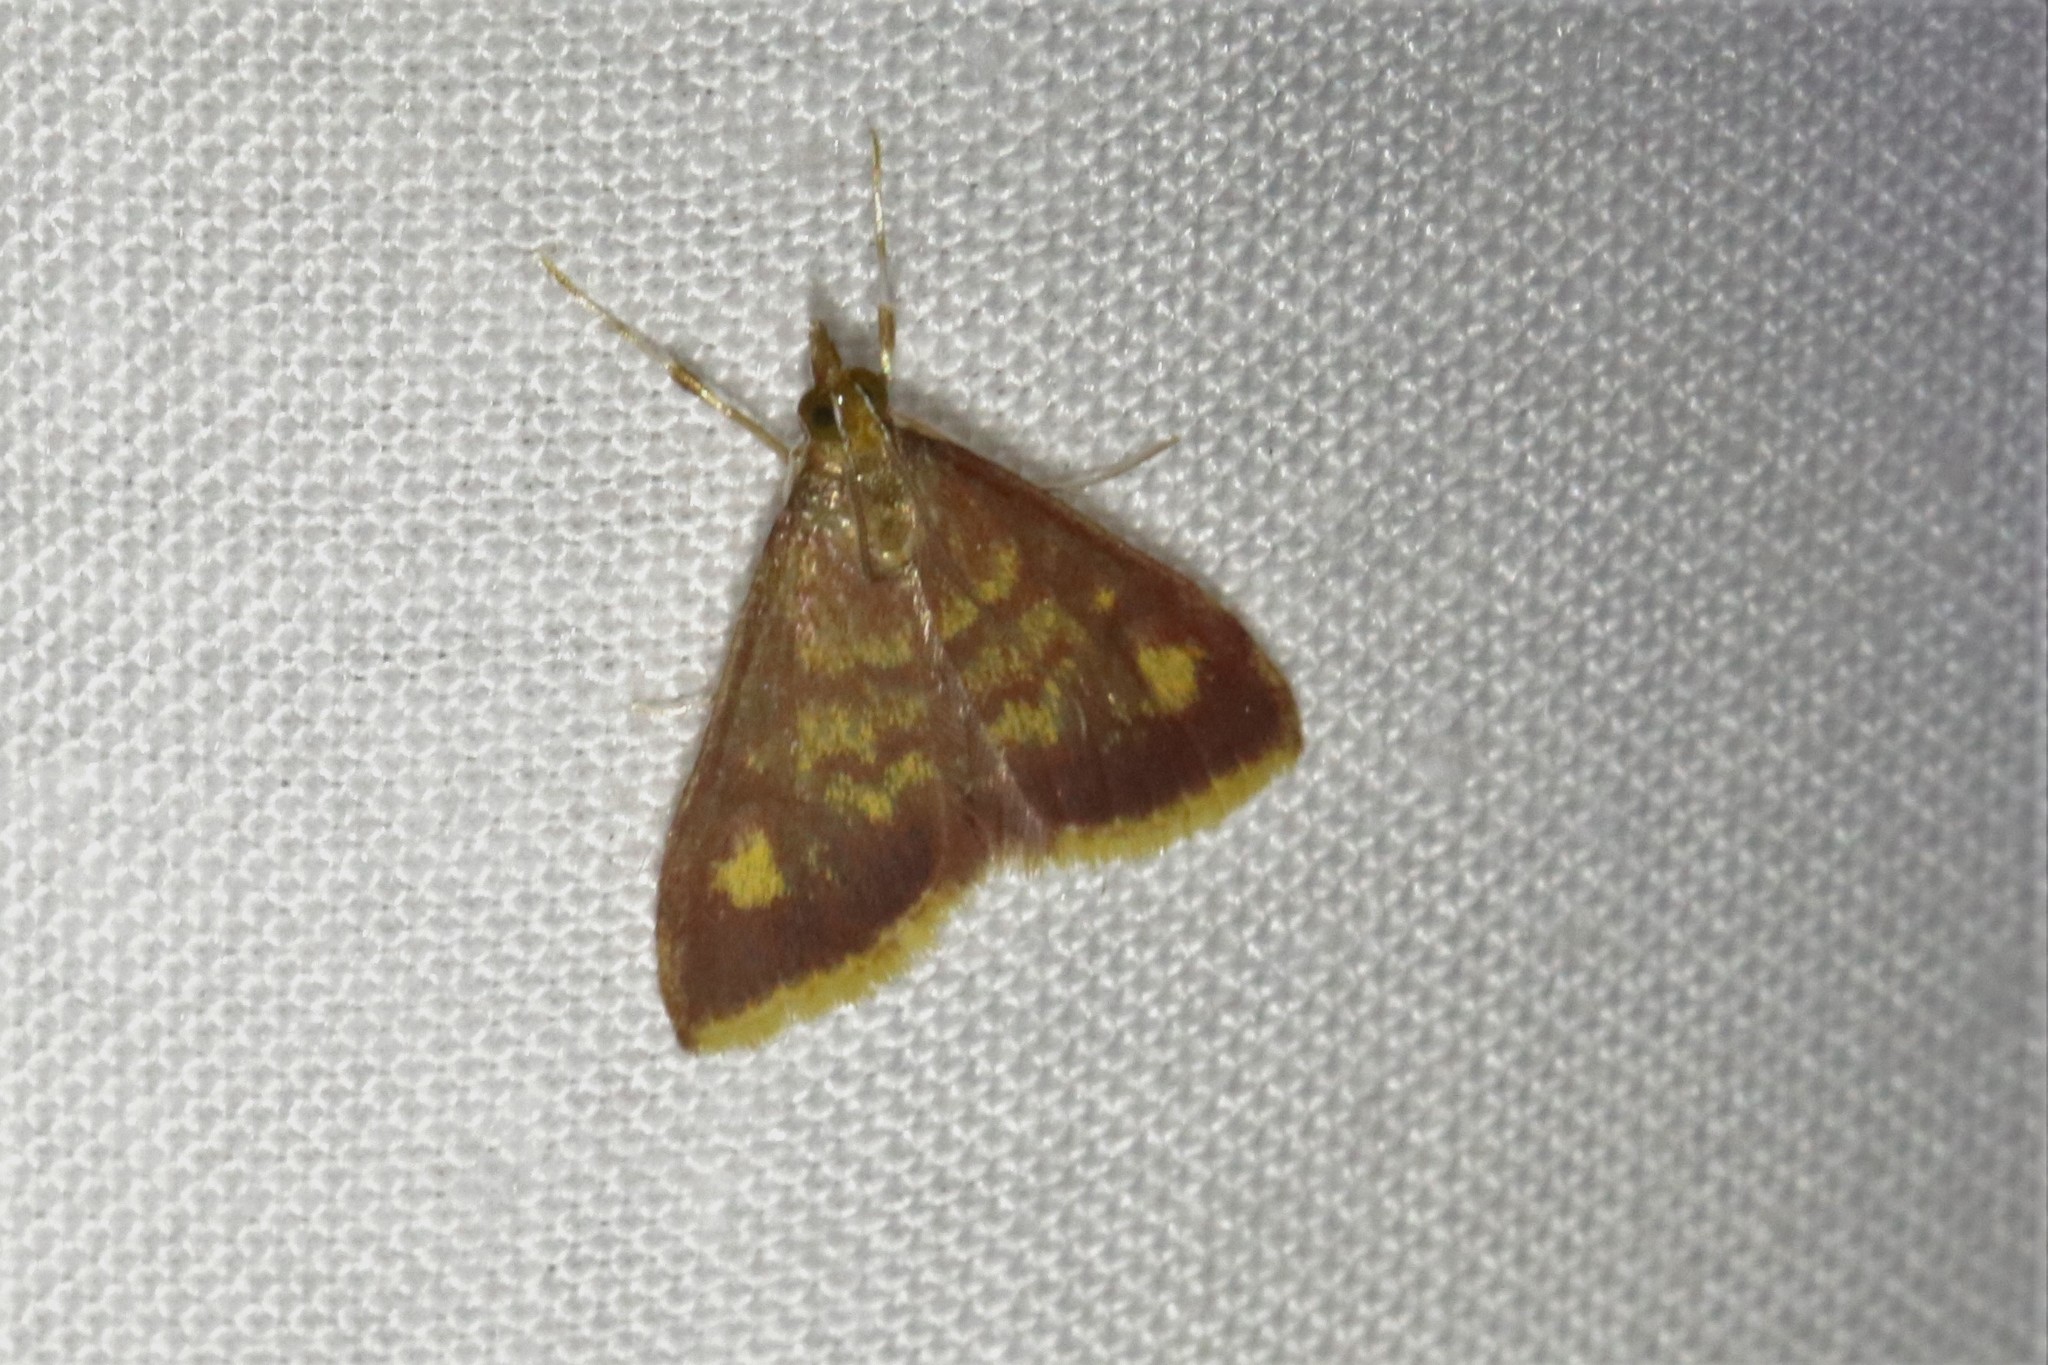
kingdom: Animalia
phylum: Arthropoda
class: Insecta
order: Lepidoptera
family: Crambidae
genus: Pyrausta
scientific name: Pyrausta acrionalis
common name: Mint-loving pyrausta moth
